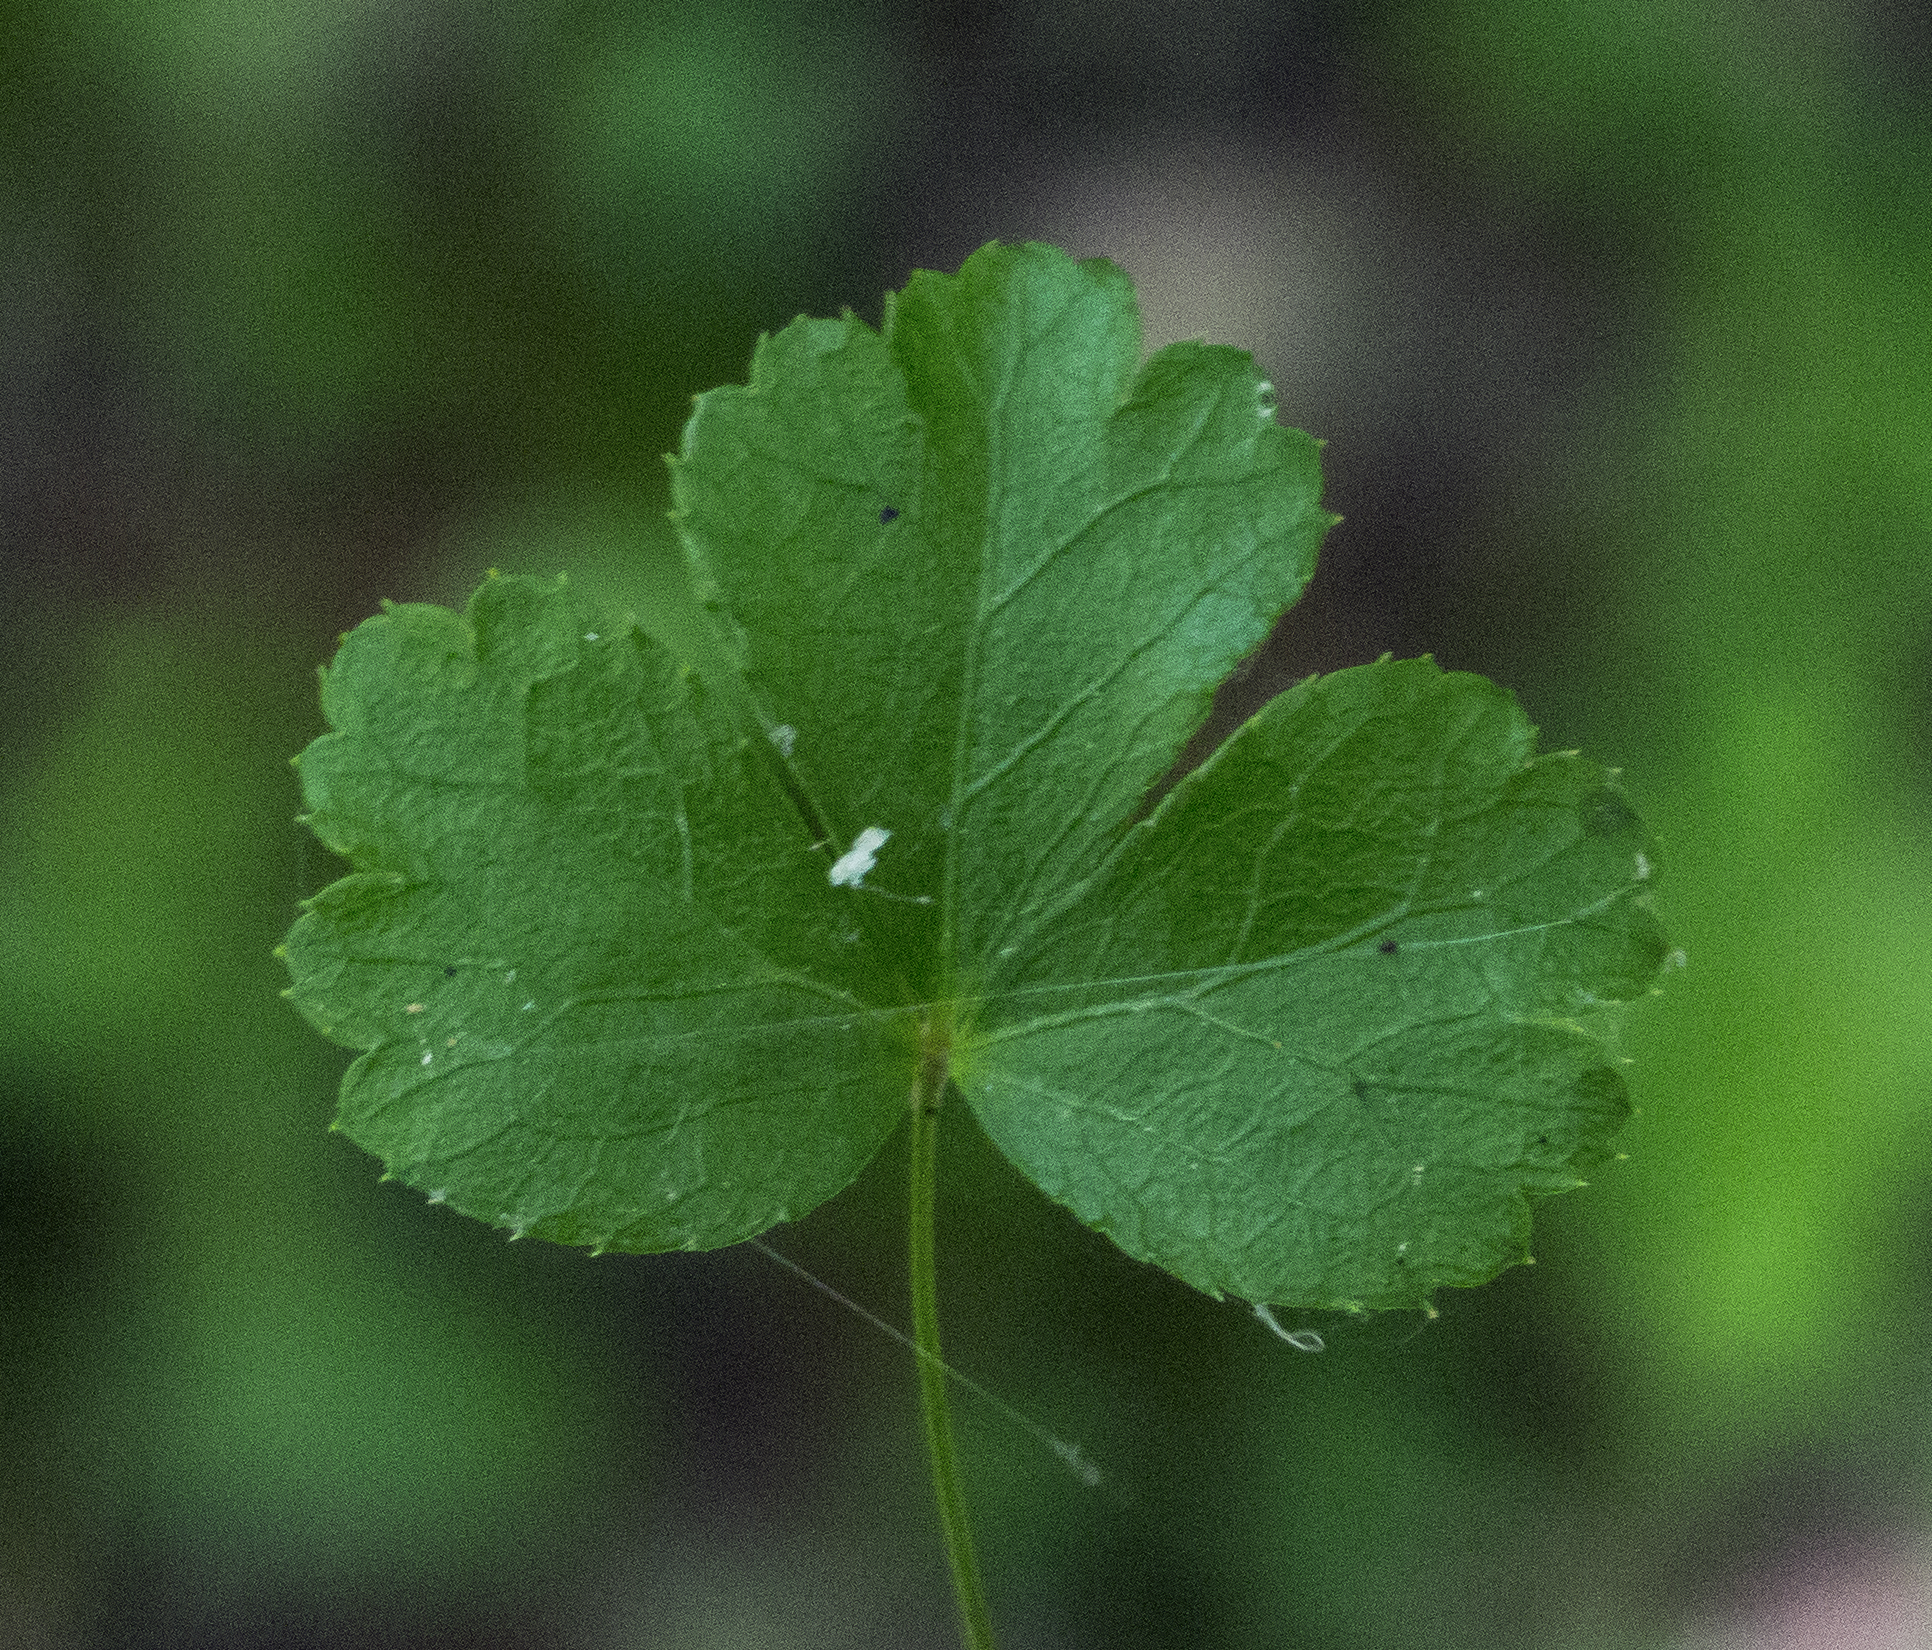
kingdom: Plantae
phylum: Tracheophyta
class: Magnoliopsida
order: Ranunculales
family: Ranunculaceae
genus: Coptis
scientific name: Coptis trifolia
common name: Canker-root
